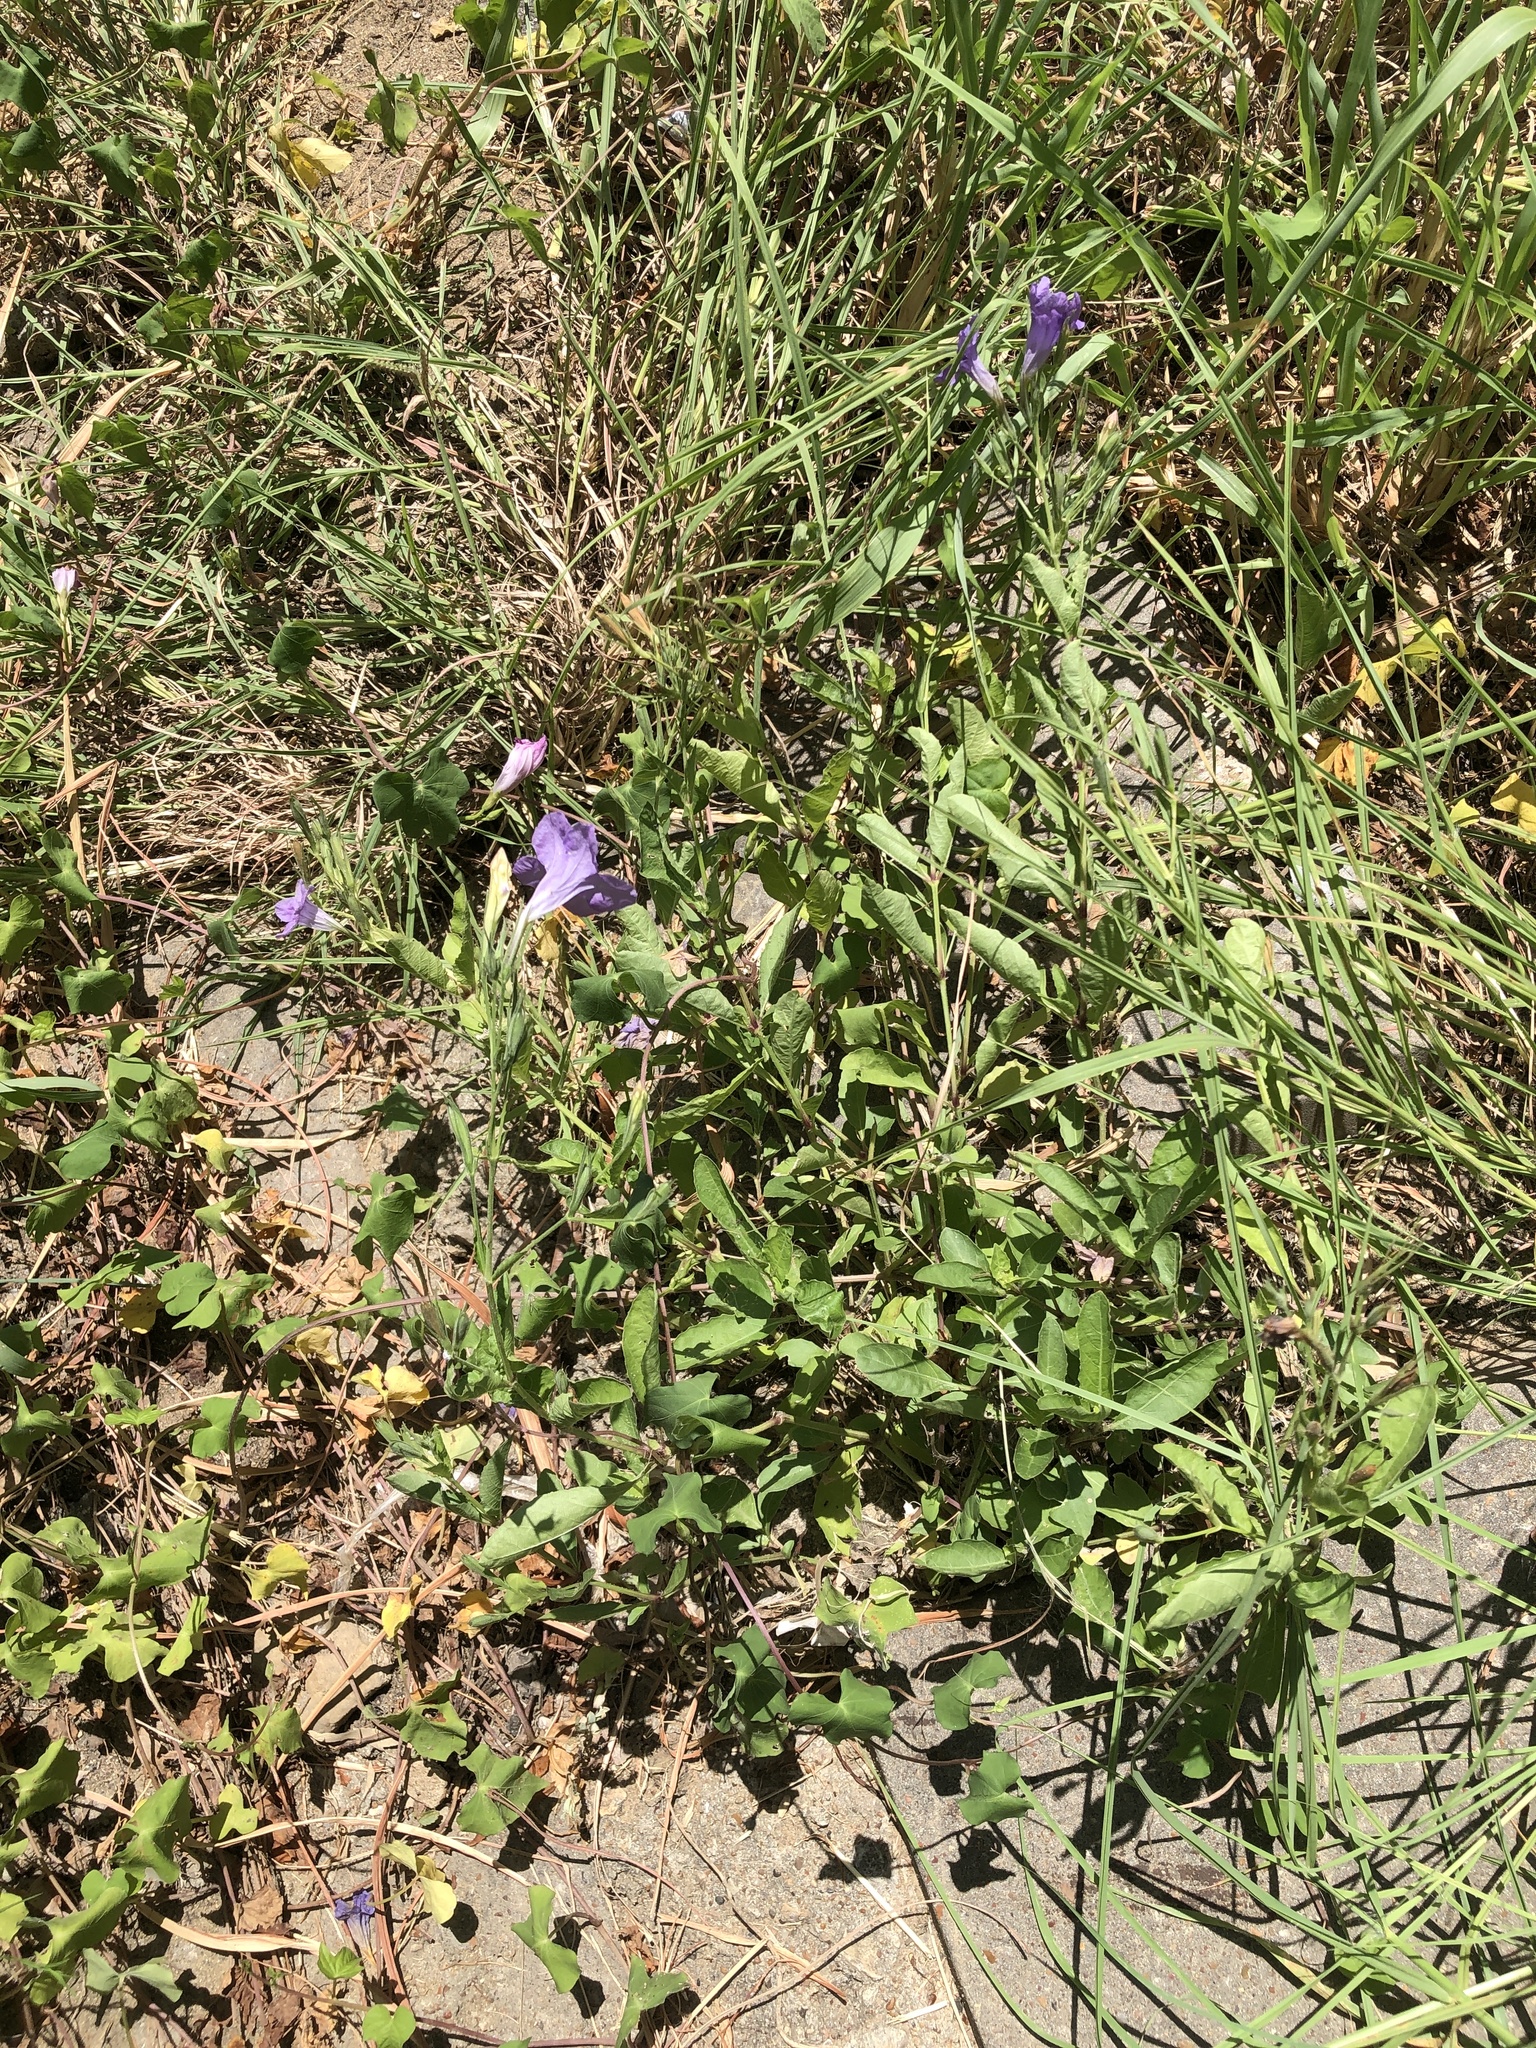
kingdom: Plantae
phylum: Tracheophyta
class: Magnoliopsida
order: Lamiales
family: Acanthaceae
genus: Ruellia
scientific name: Ruellia ciliatiflora
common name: Hairyflower wild petunia
